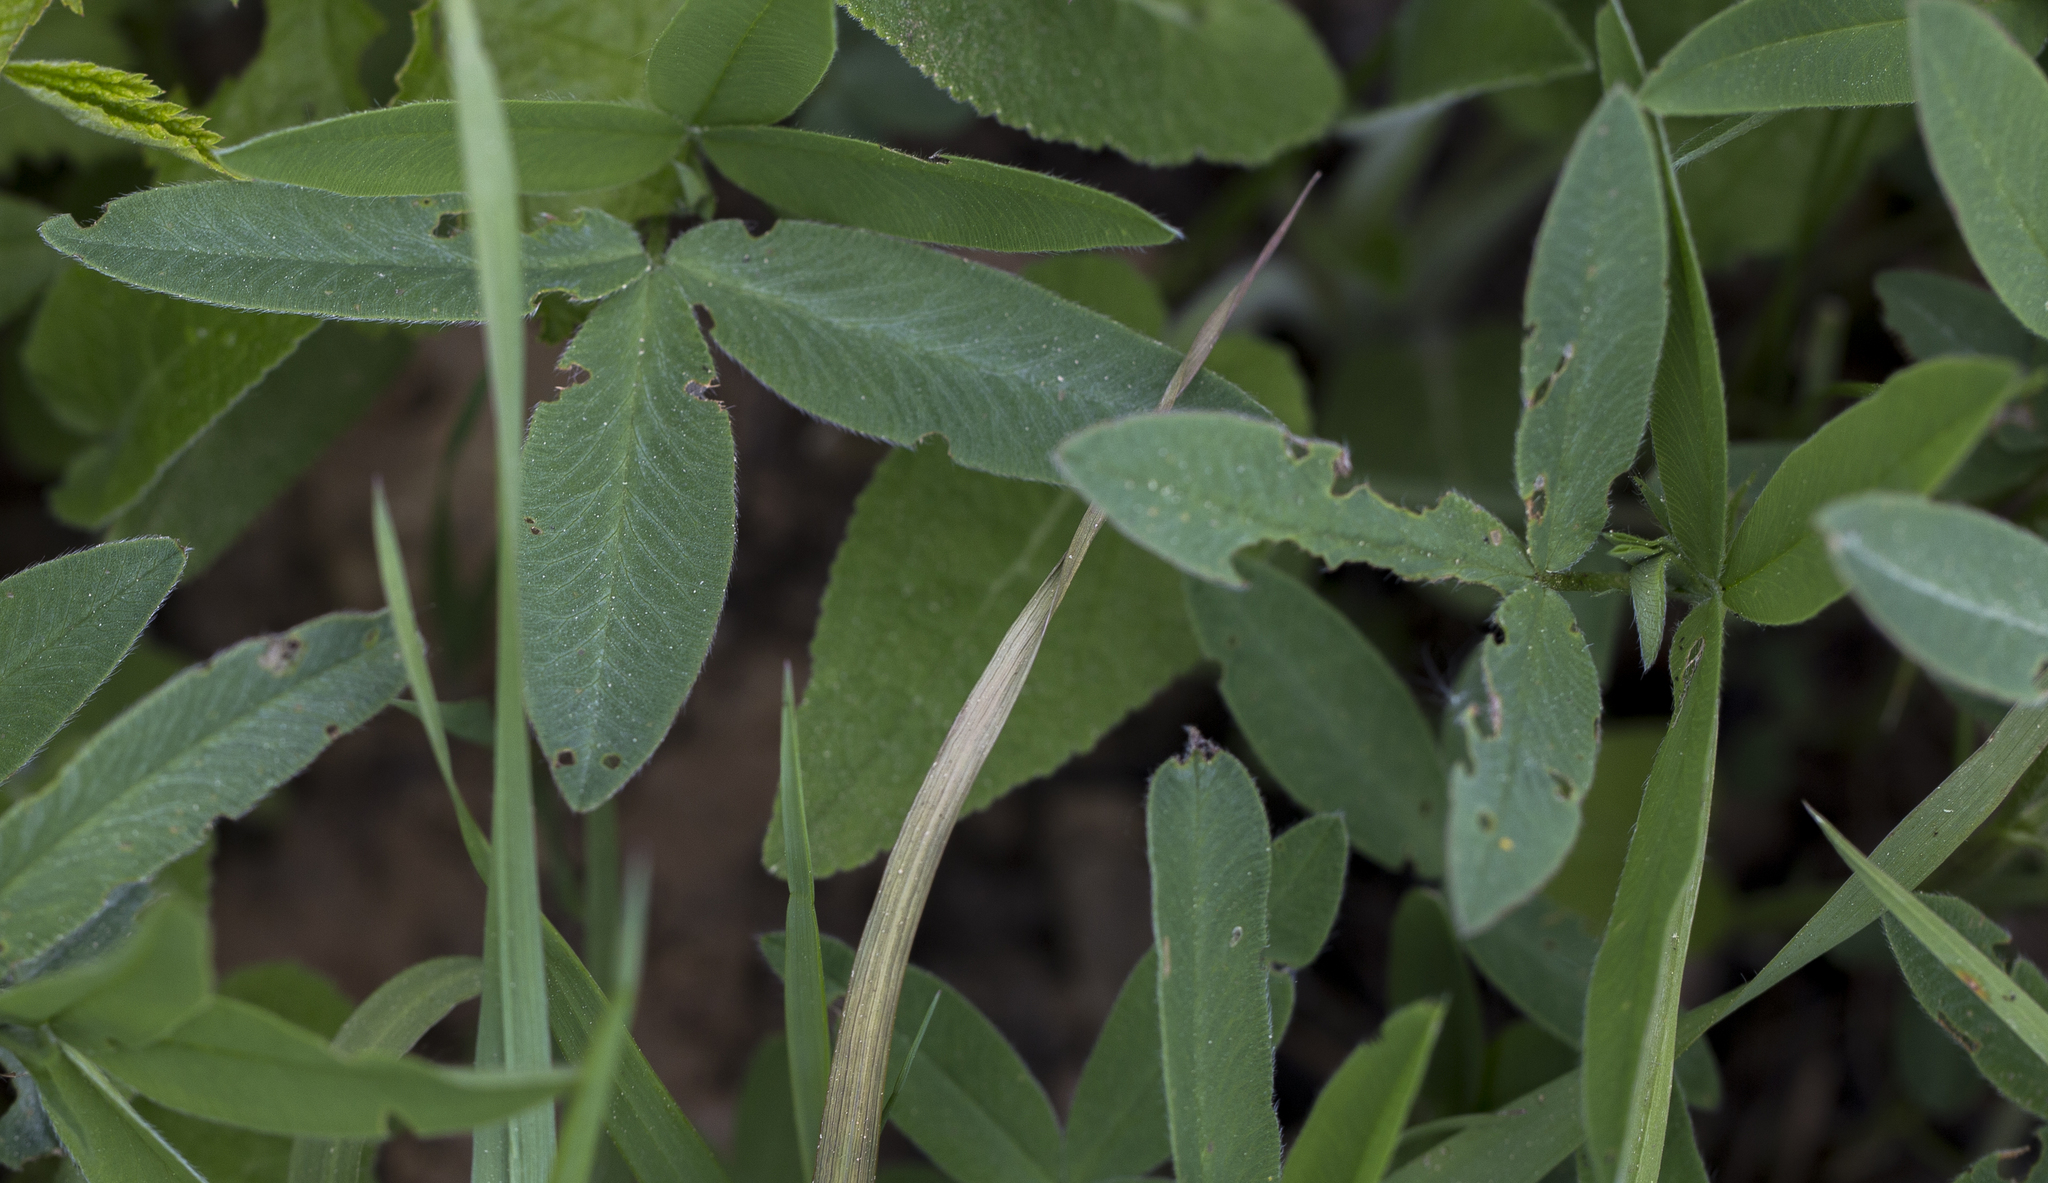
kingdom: Plantae
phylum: Tracheophyta
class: Magnoliopsida
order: Fabales
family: Fabaceae
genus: Trifolium
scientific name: Trifolium medium
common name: Zigzag clover
